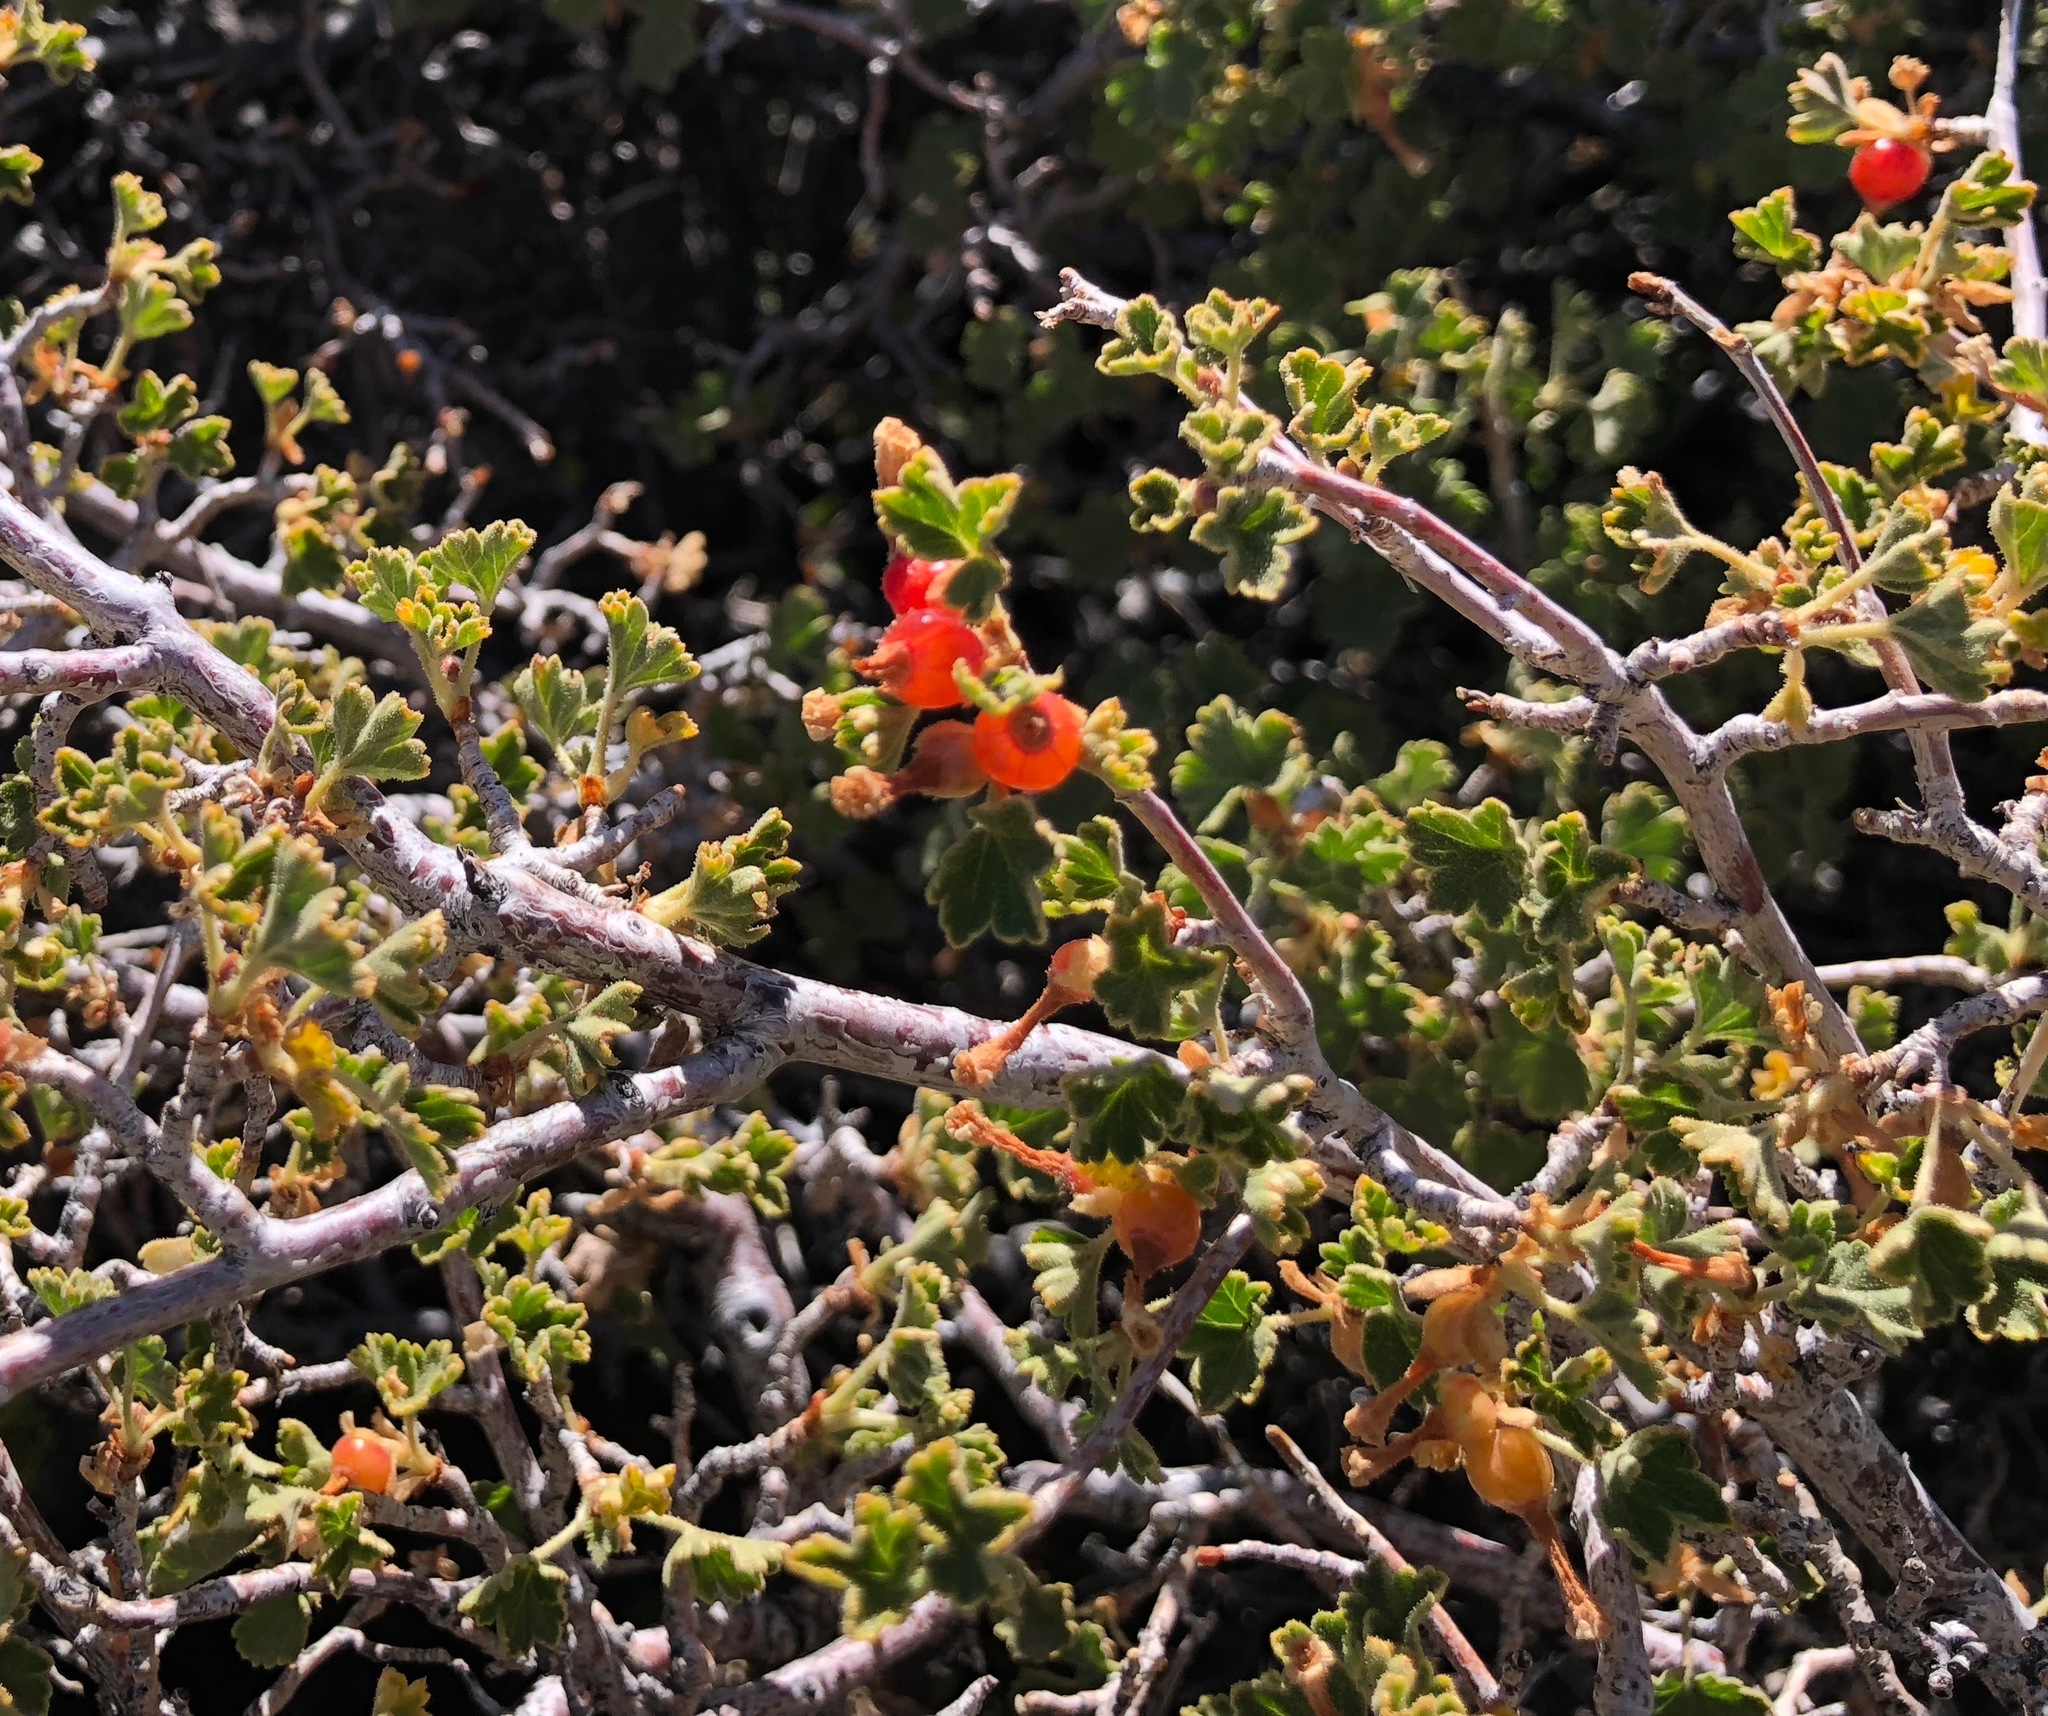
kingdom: Plantae
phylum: Tracheophyta
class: Magnoliopsida
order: Saxifragales
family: Grossulariaceae
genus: Ribes
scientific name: Ribes cereum
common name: Wax currant
